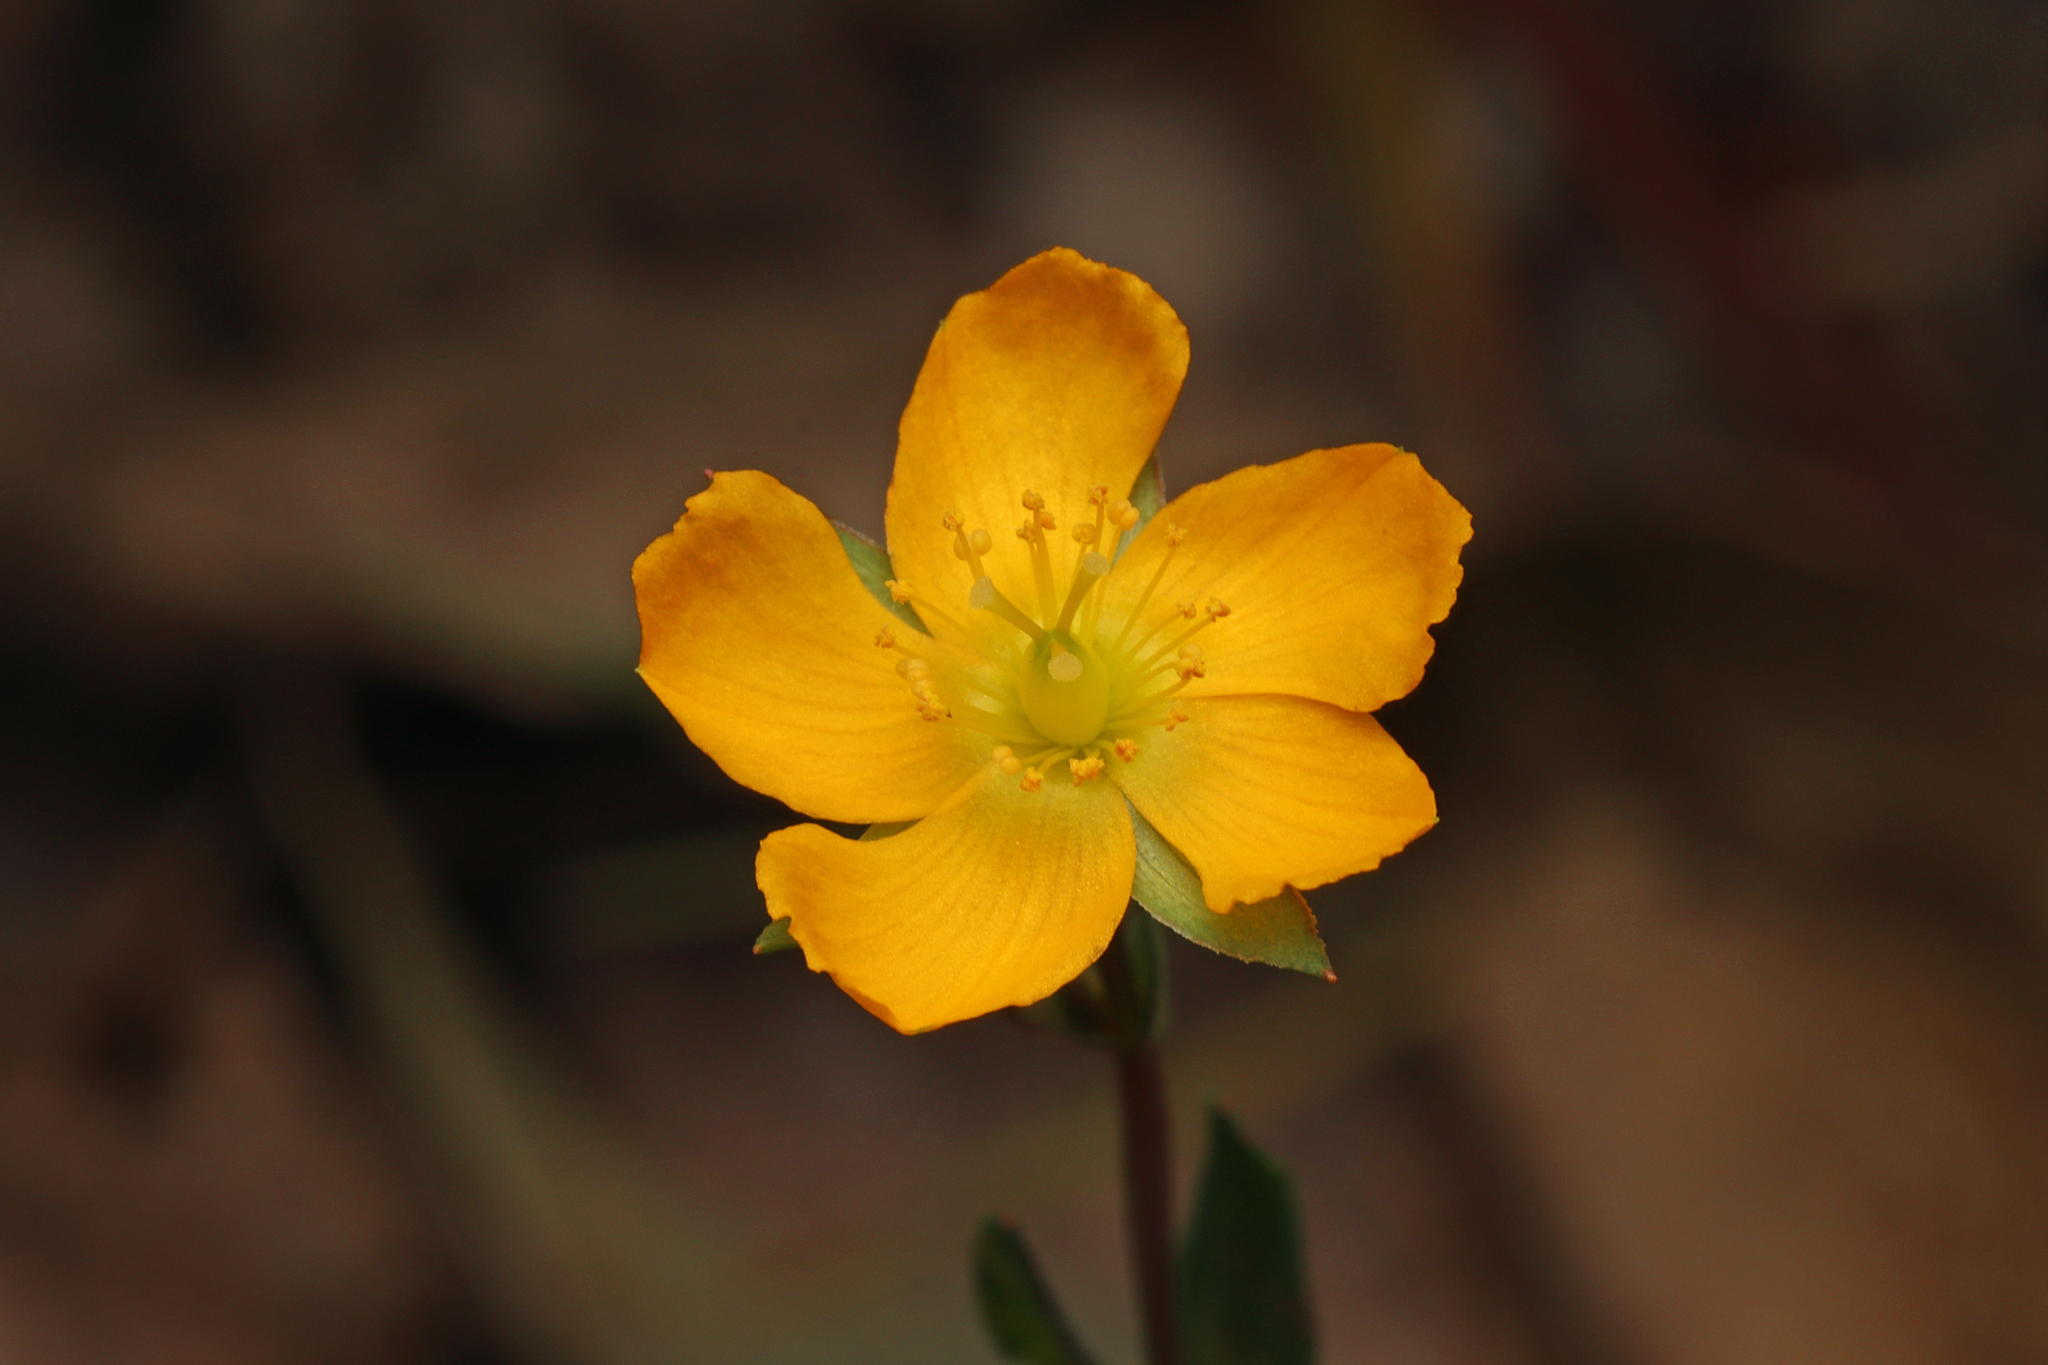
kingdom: Plantae
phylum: Tracheophyta
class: Magnoliopsida
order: Malpighiales
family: Hypericaceae
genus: Hypericum
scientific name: Hypericum gramineum
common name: Grassy st. johnswort
